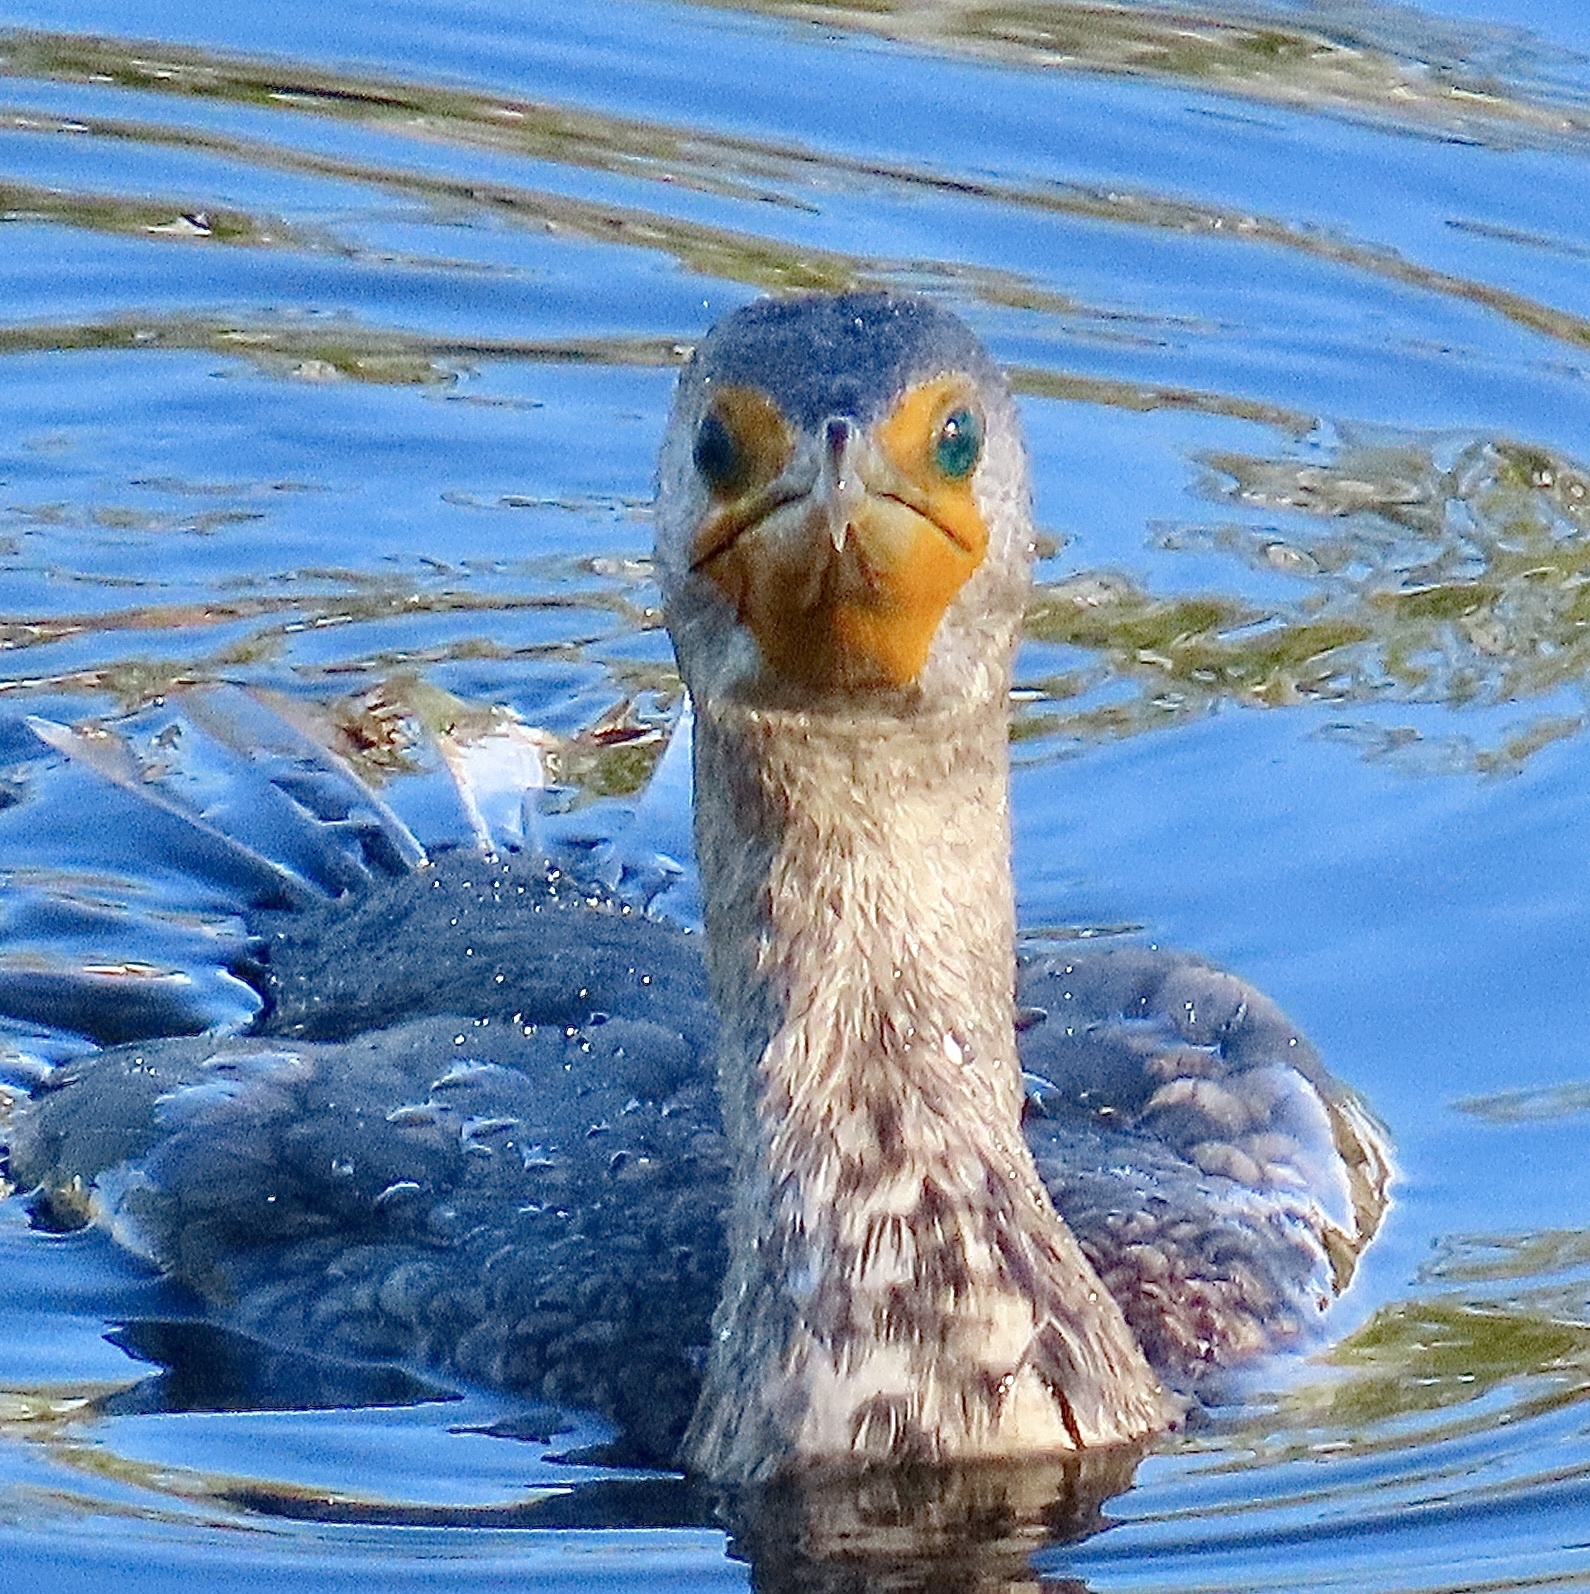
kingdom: Animalia
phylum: Chordata
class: Aves
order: Suliformes
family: Phalacrocoracidae
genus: Phalacrocorax
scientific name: Phalacrocorax auritus
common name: Double-crested cormorant
